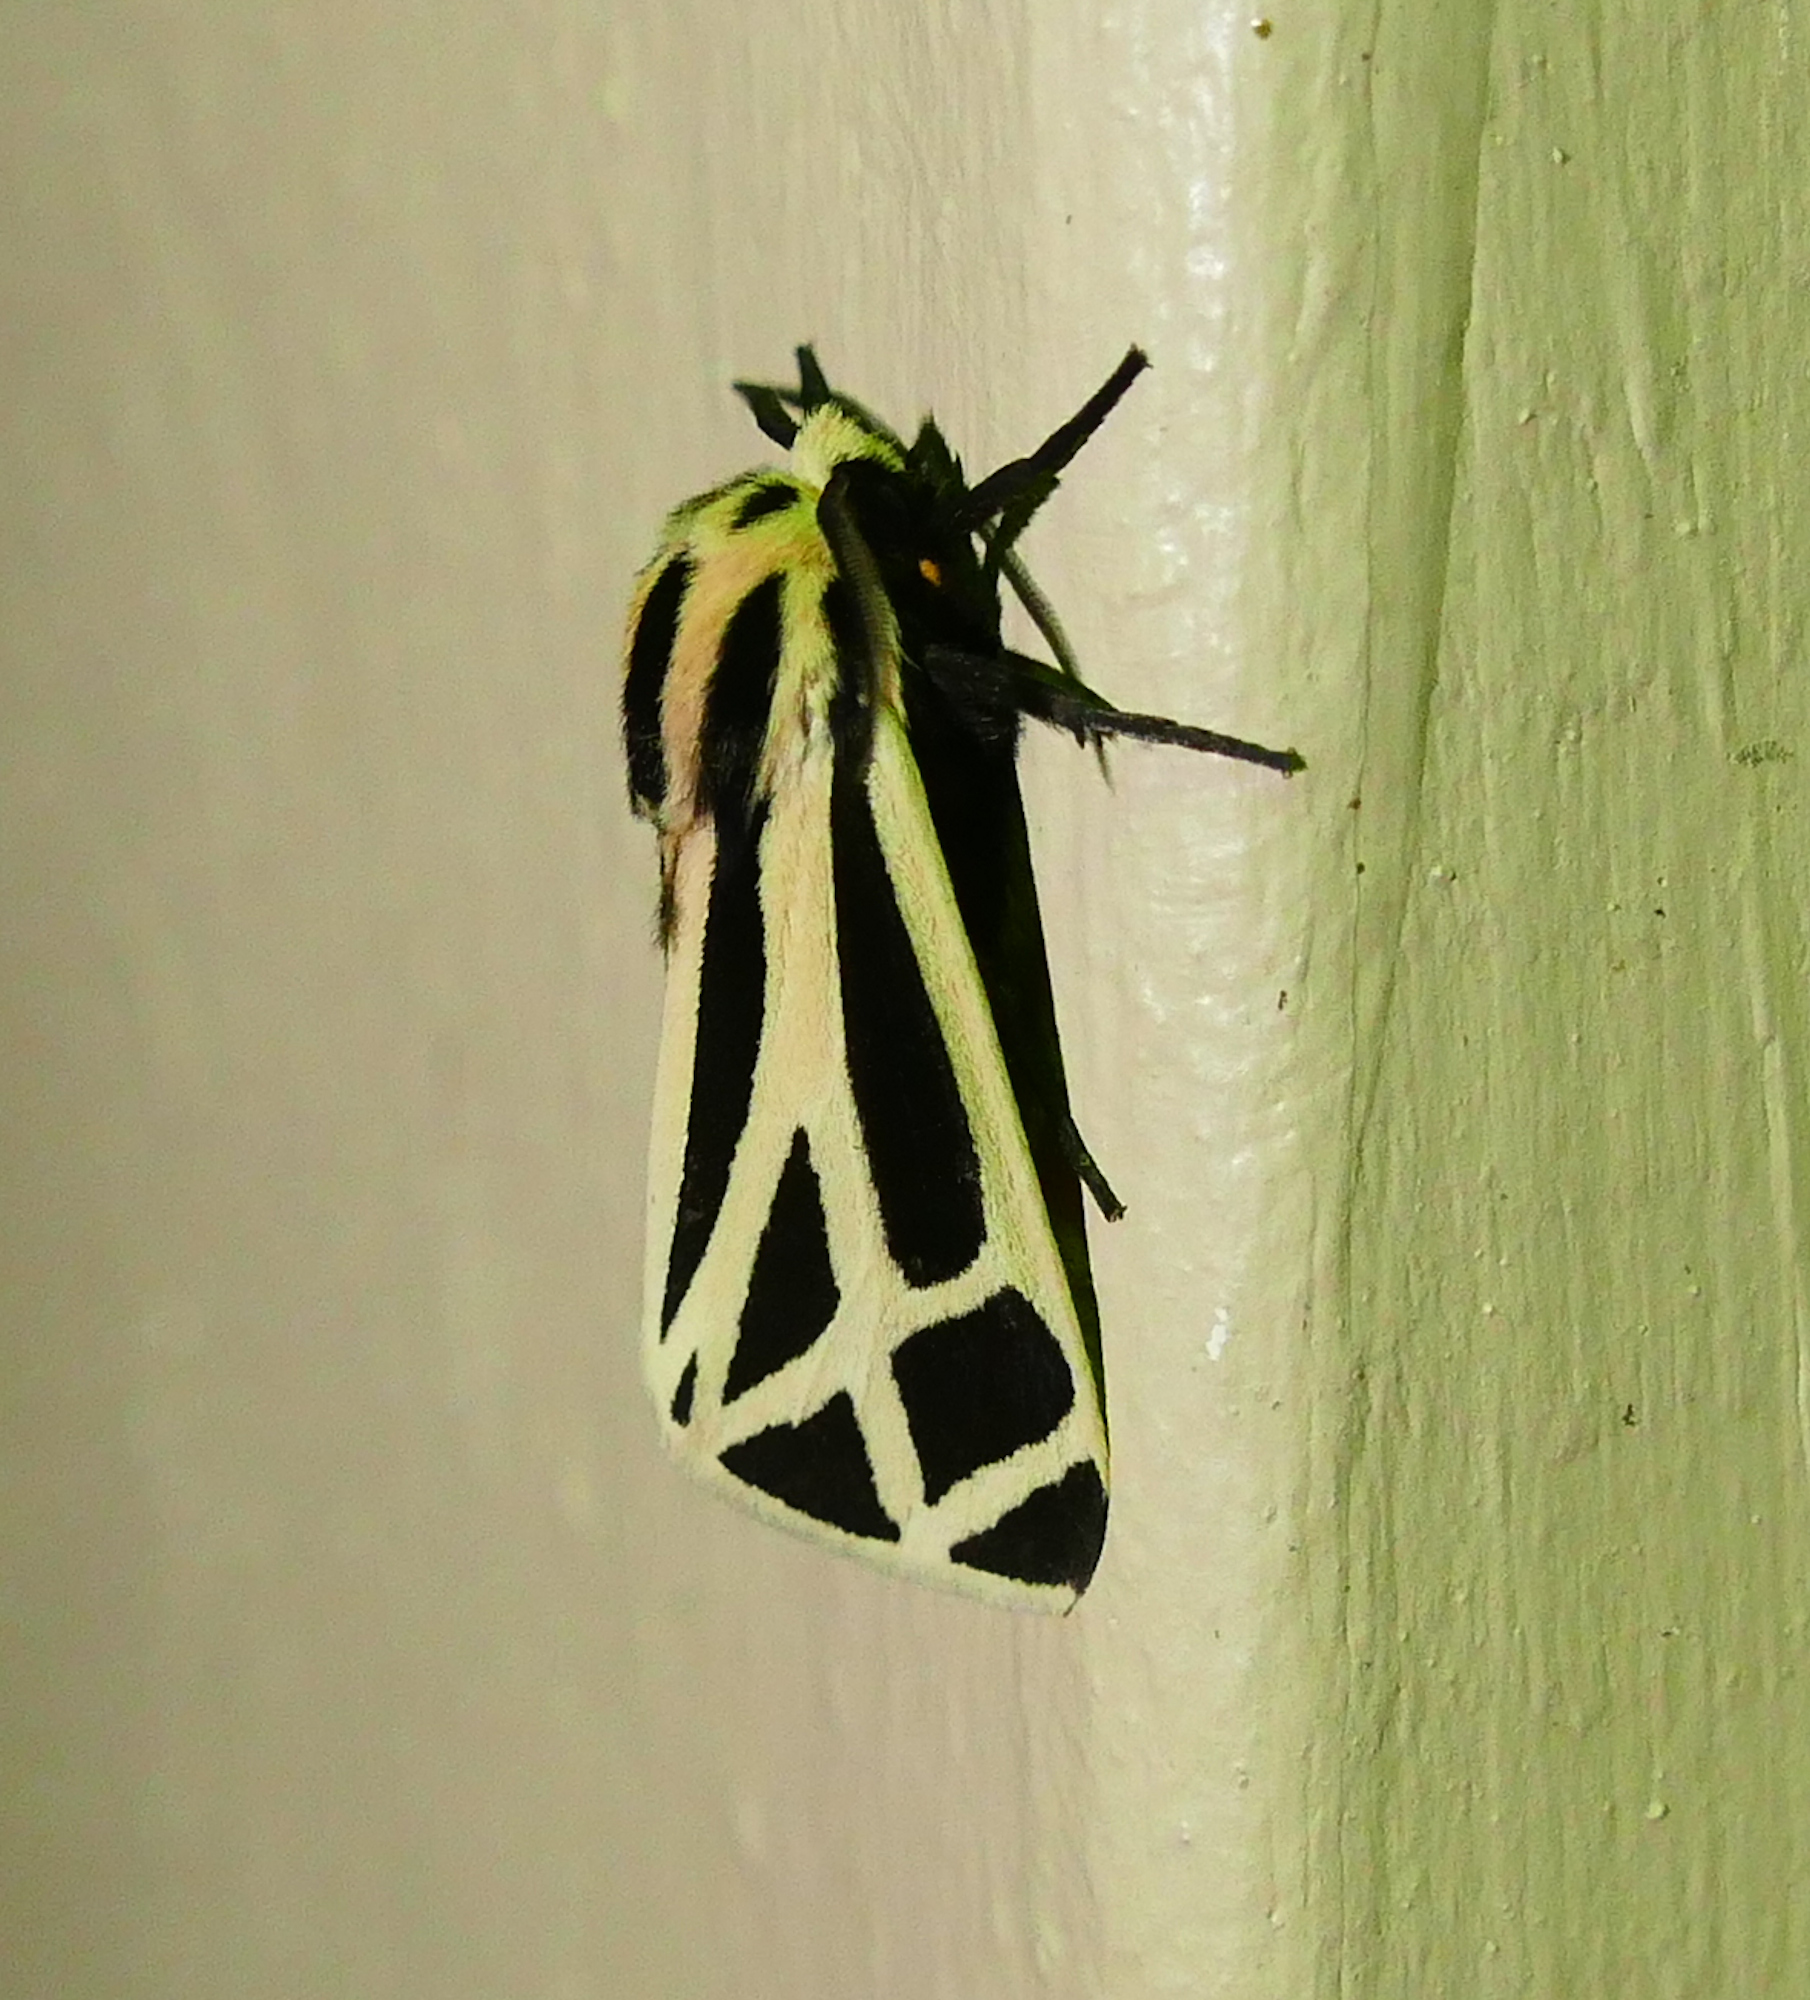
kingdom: Animalia
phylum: Arthropoda
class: Insecta
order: Lepidoptera
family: Erebidae
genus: Apantesis
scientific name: Apantesis phalerata
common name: Harnessed tiger moth
